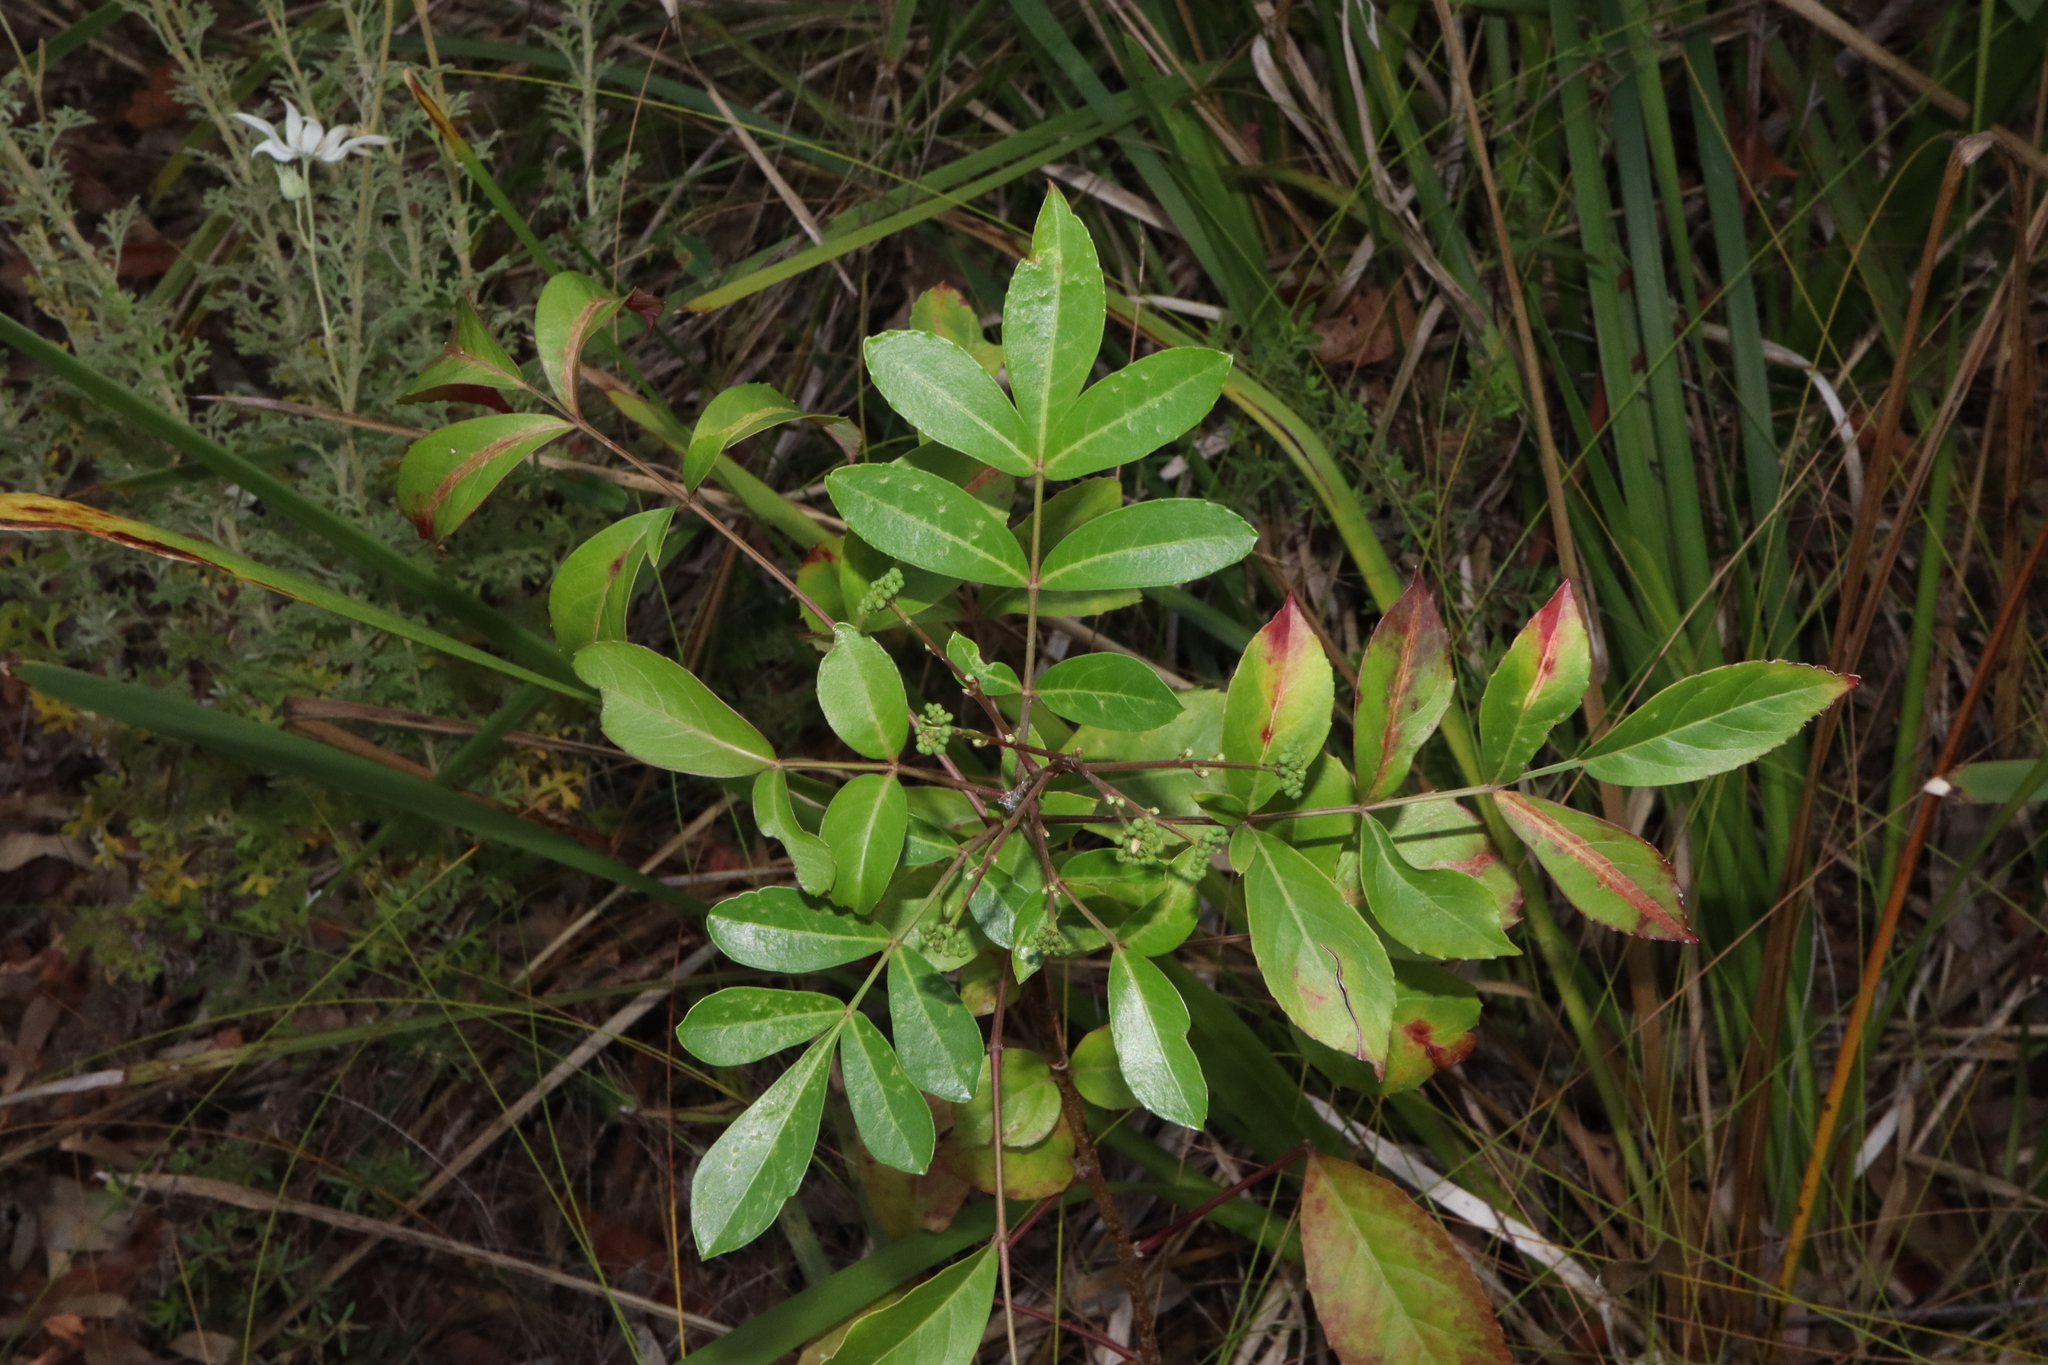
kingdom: Plantae
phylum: Tracheophyta
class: Magnoliopsida
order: Apiales
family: Araliaceae
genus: Polyscias
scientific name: Polyscias sambucifolia
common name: Elderberry-ash
